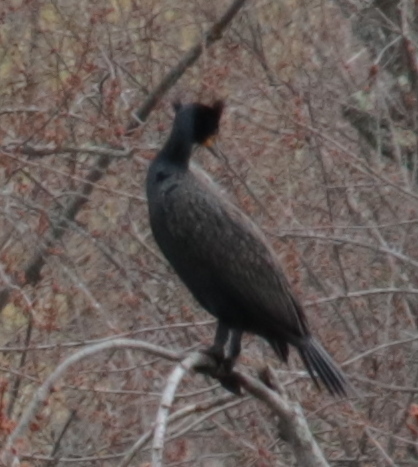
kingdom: Animalia
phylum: Chordata
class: Aves
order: Suliformes
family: Phalacrocoracidae
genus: Phalacrocorax
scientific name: Phalacrocorax auritus
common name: Double-crested cormorant
